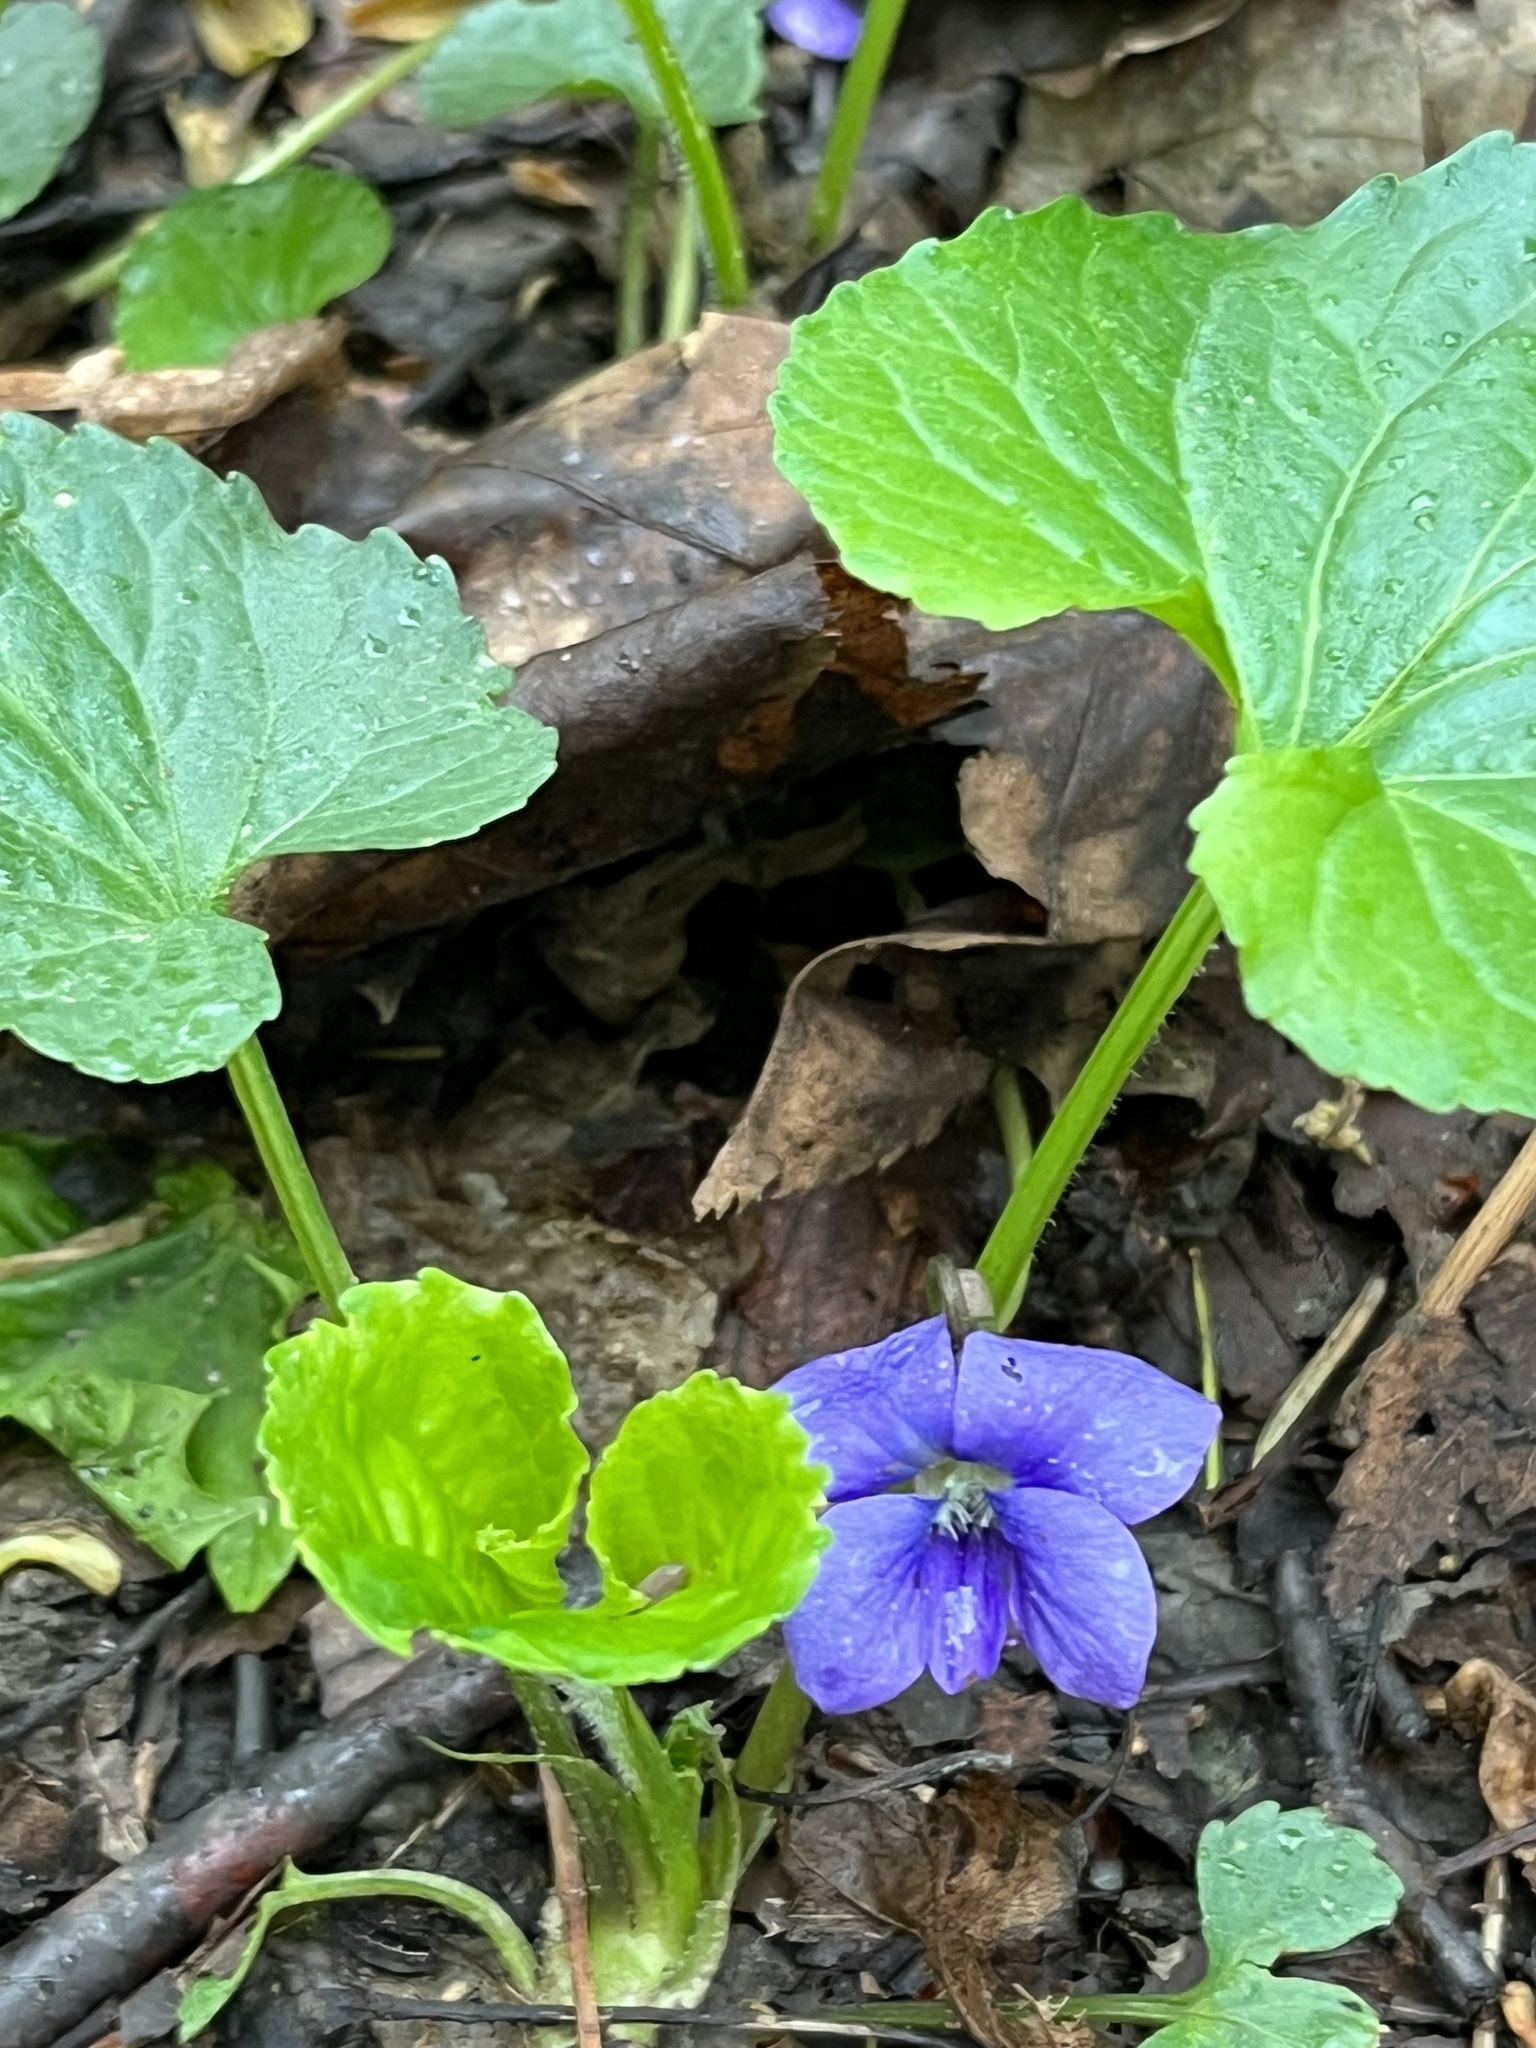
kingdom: Plantae
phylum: Tracheophyta
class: Magnoliopsida
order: Malpighiales
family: Violaceae
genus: Viola
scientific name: Viola sororia
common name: Dooryard violet
